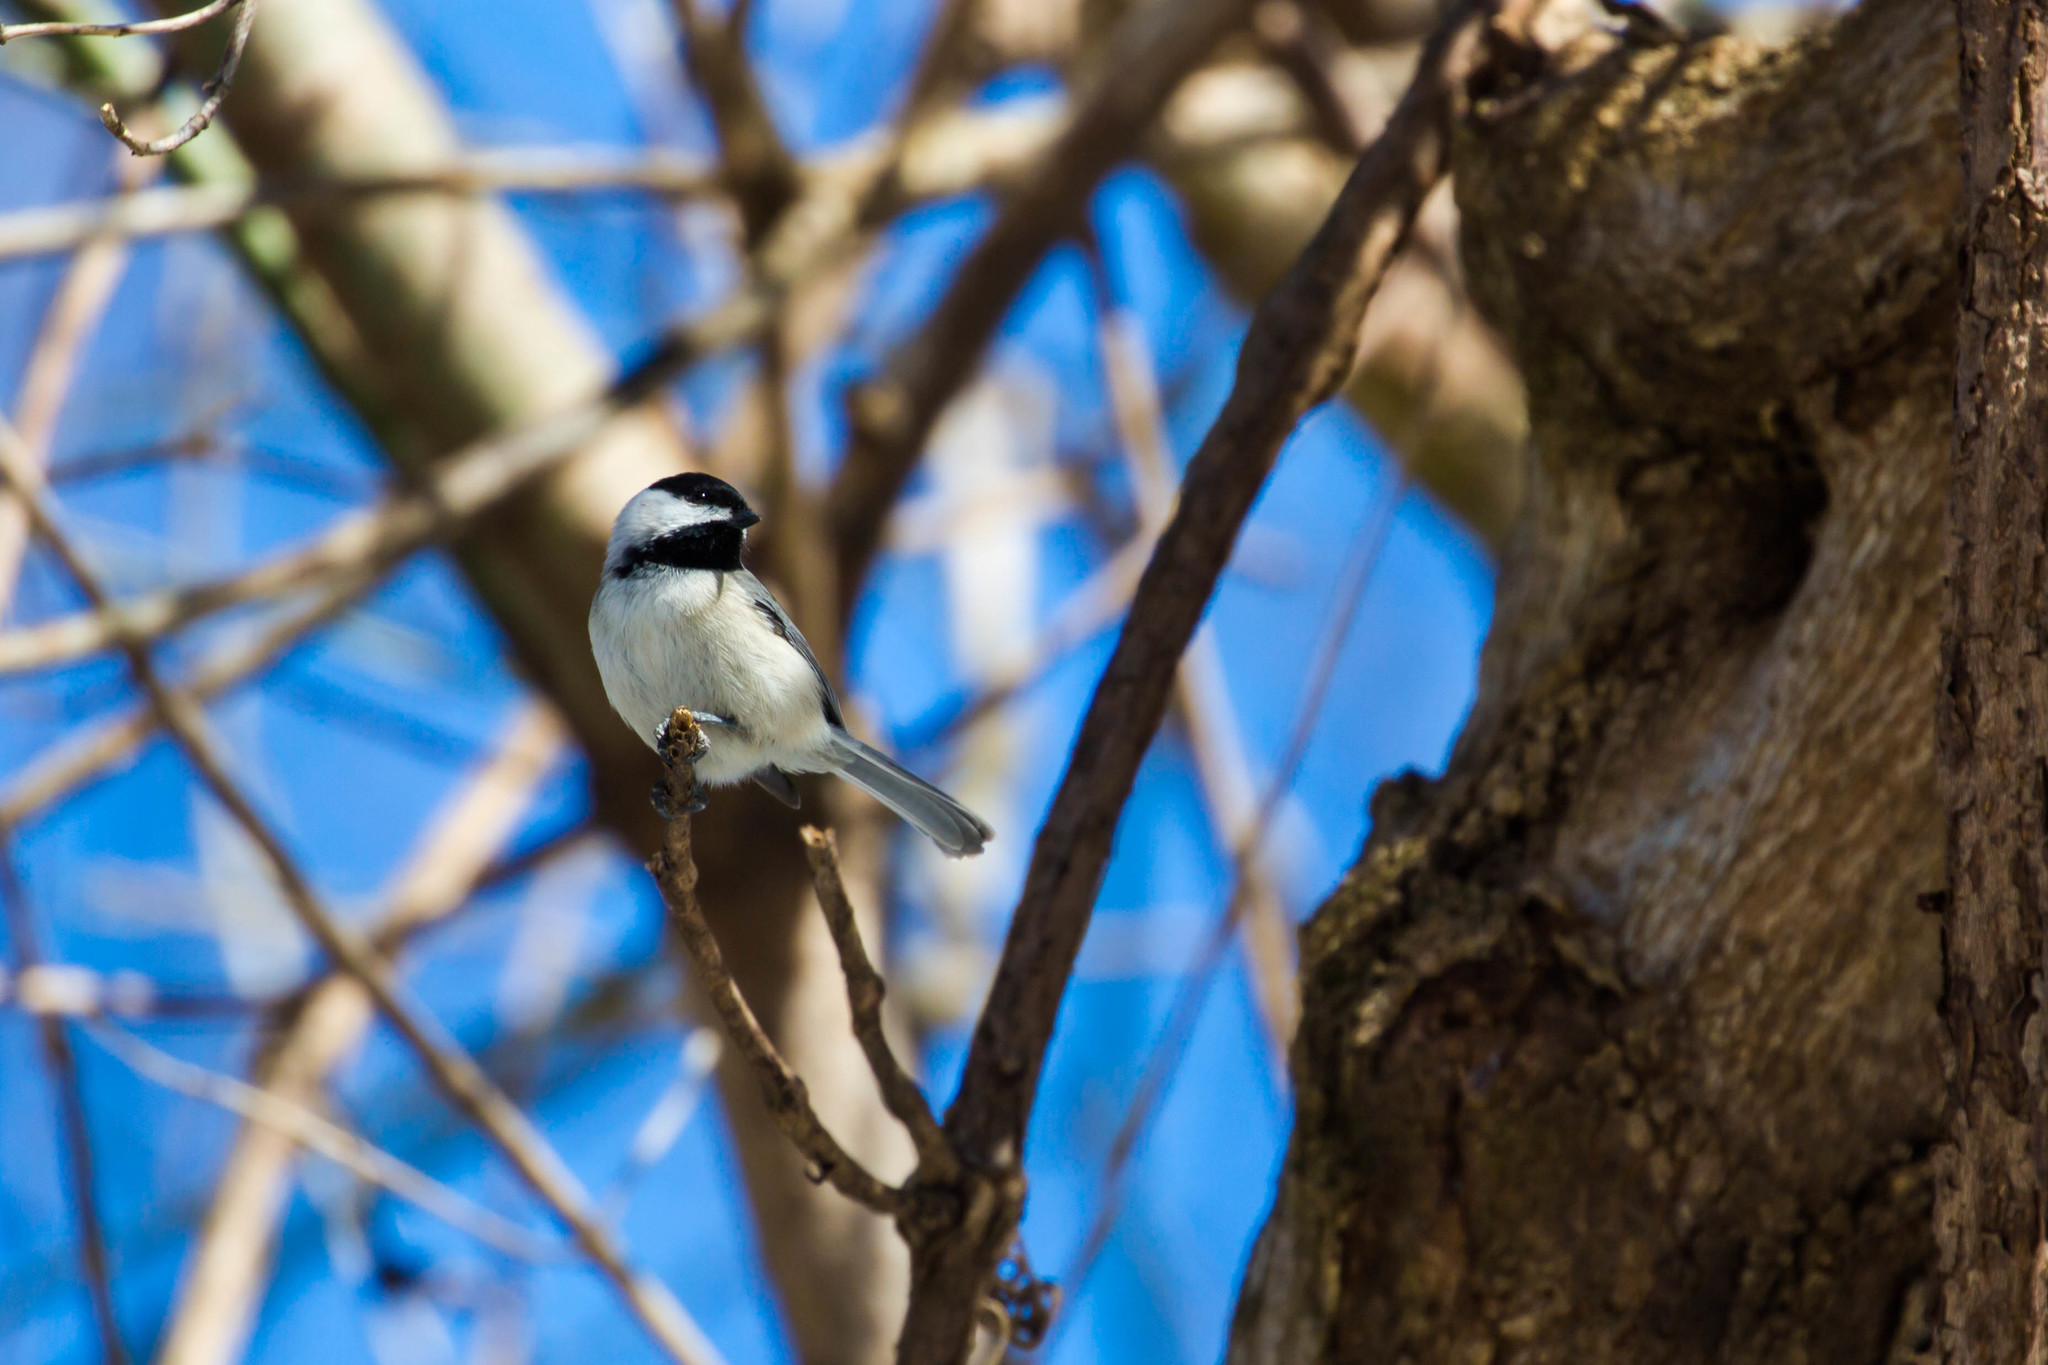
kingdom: Animalia
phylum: Chordata
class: Aves
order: Passeriformes
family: Paridae
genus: Poecile
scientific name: Poecile carolinensis
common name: Carolina chickadee
